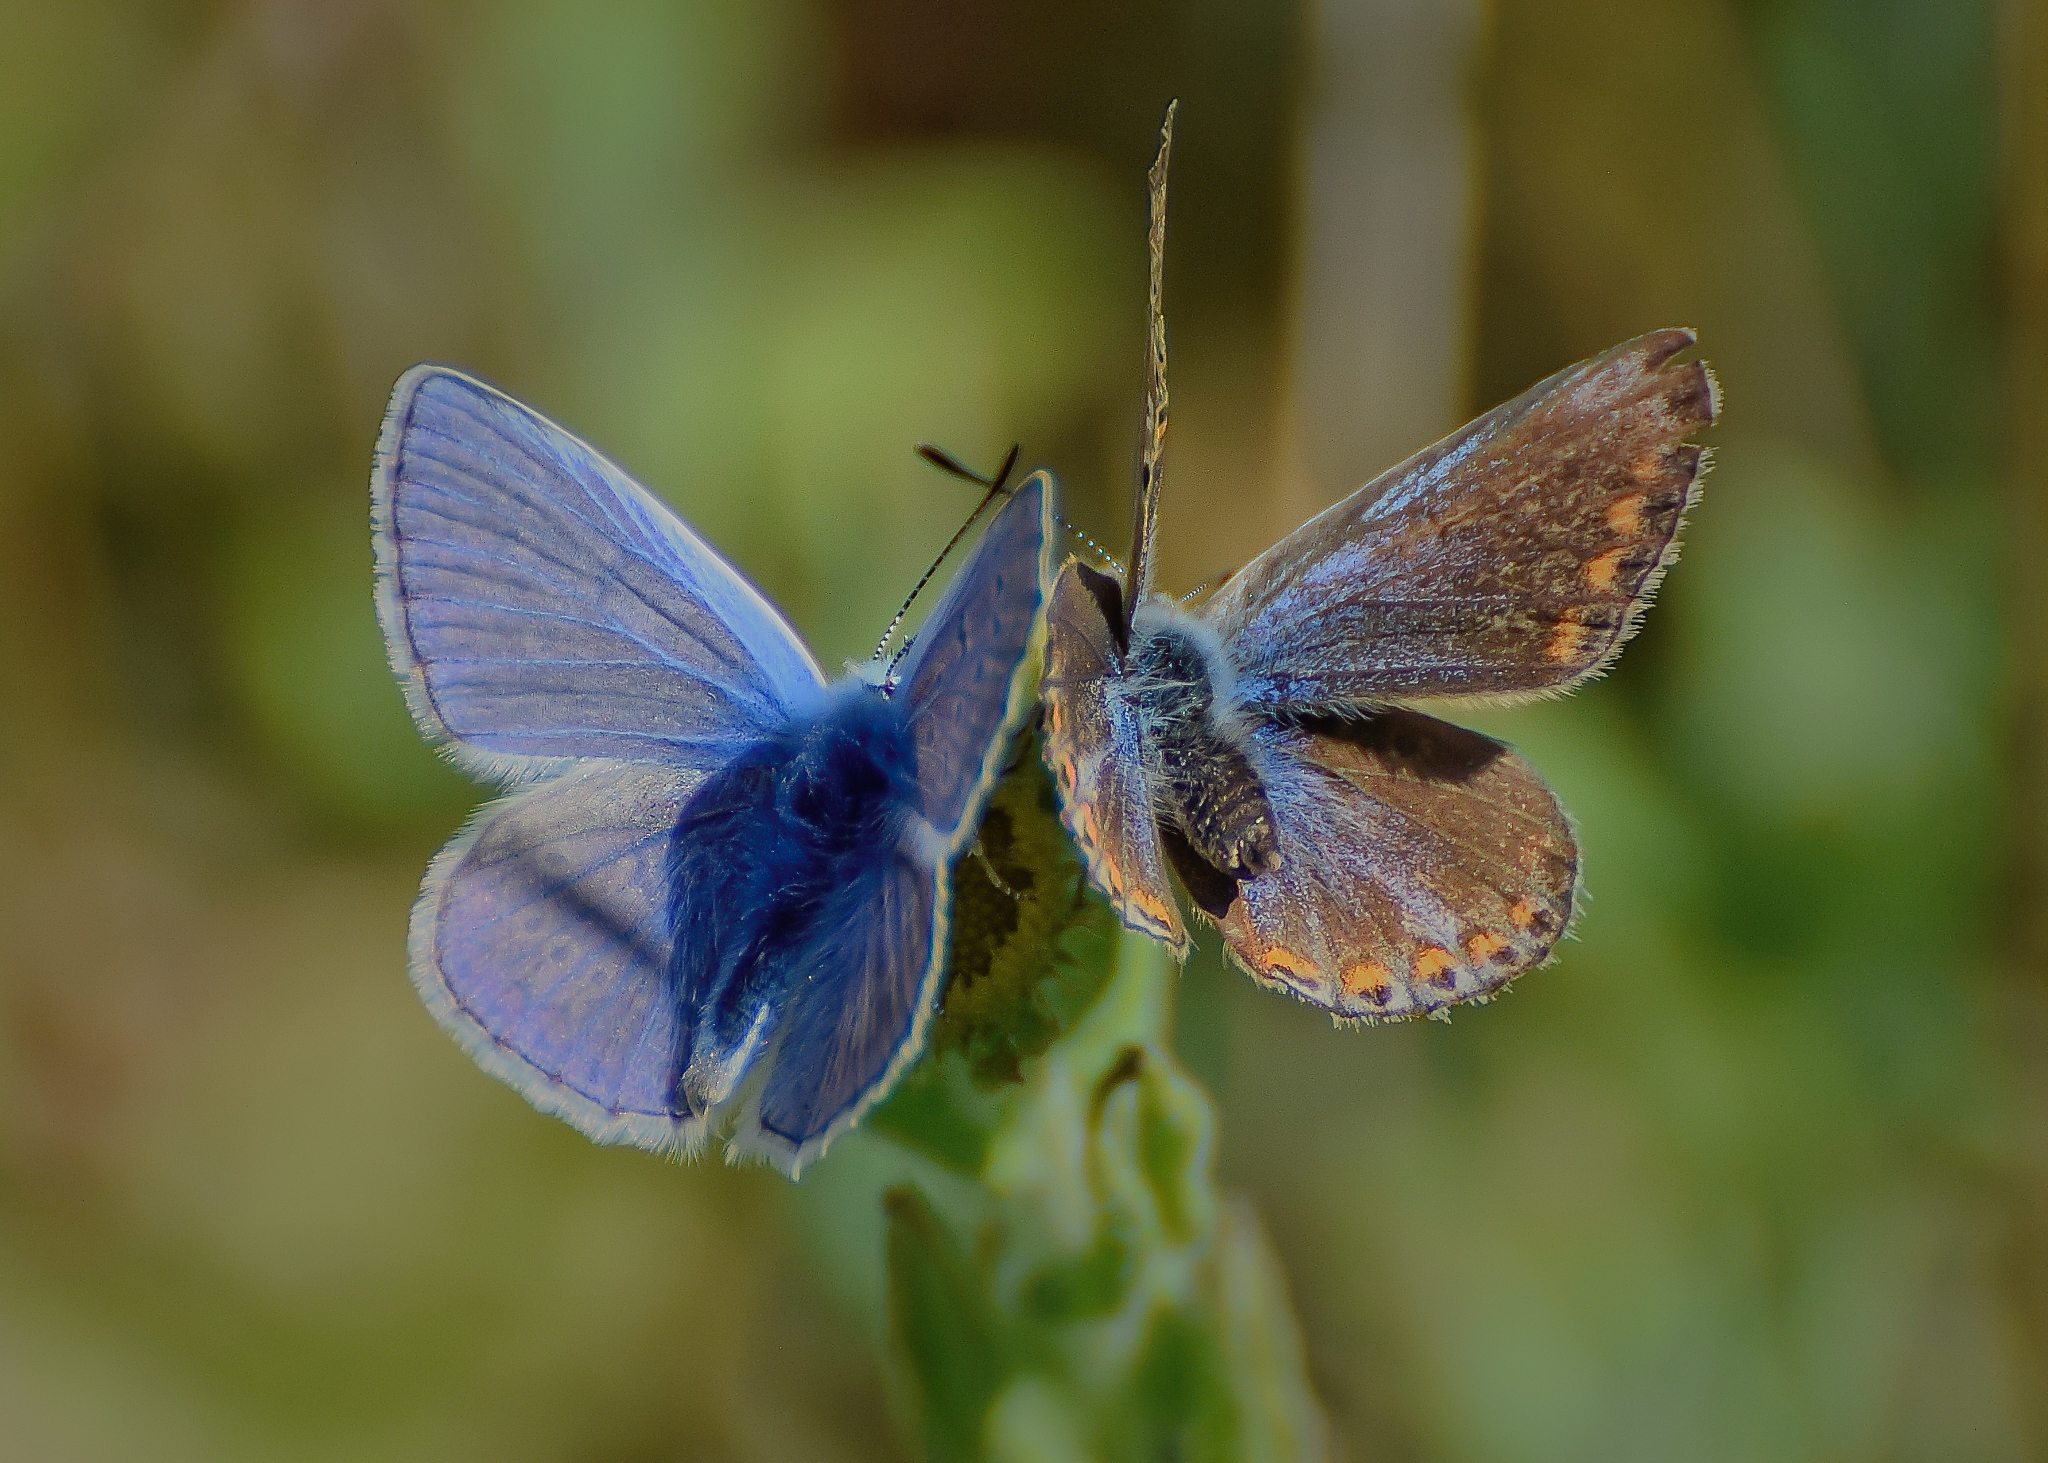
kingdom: Animalia
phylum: Arthropoda
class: Insecta
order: Lepidoptera
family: Lycaenidae
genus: Polyommatus
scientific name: Polyommatus icarus
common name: Common blue
